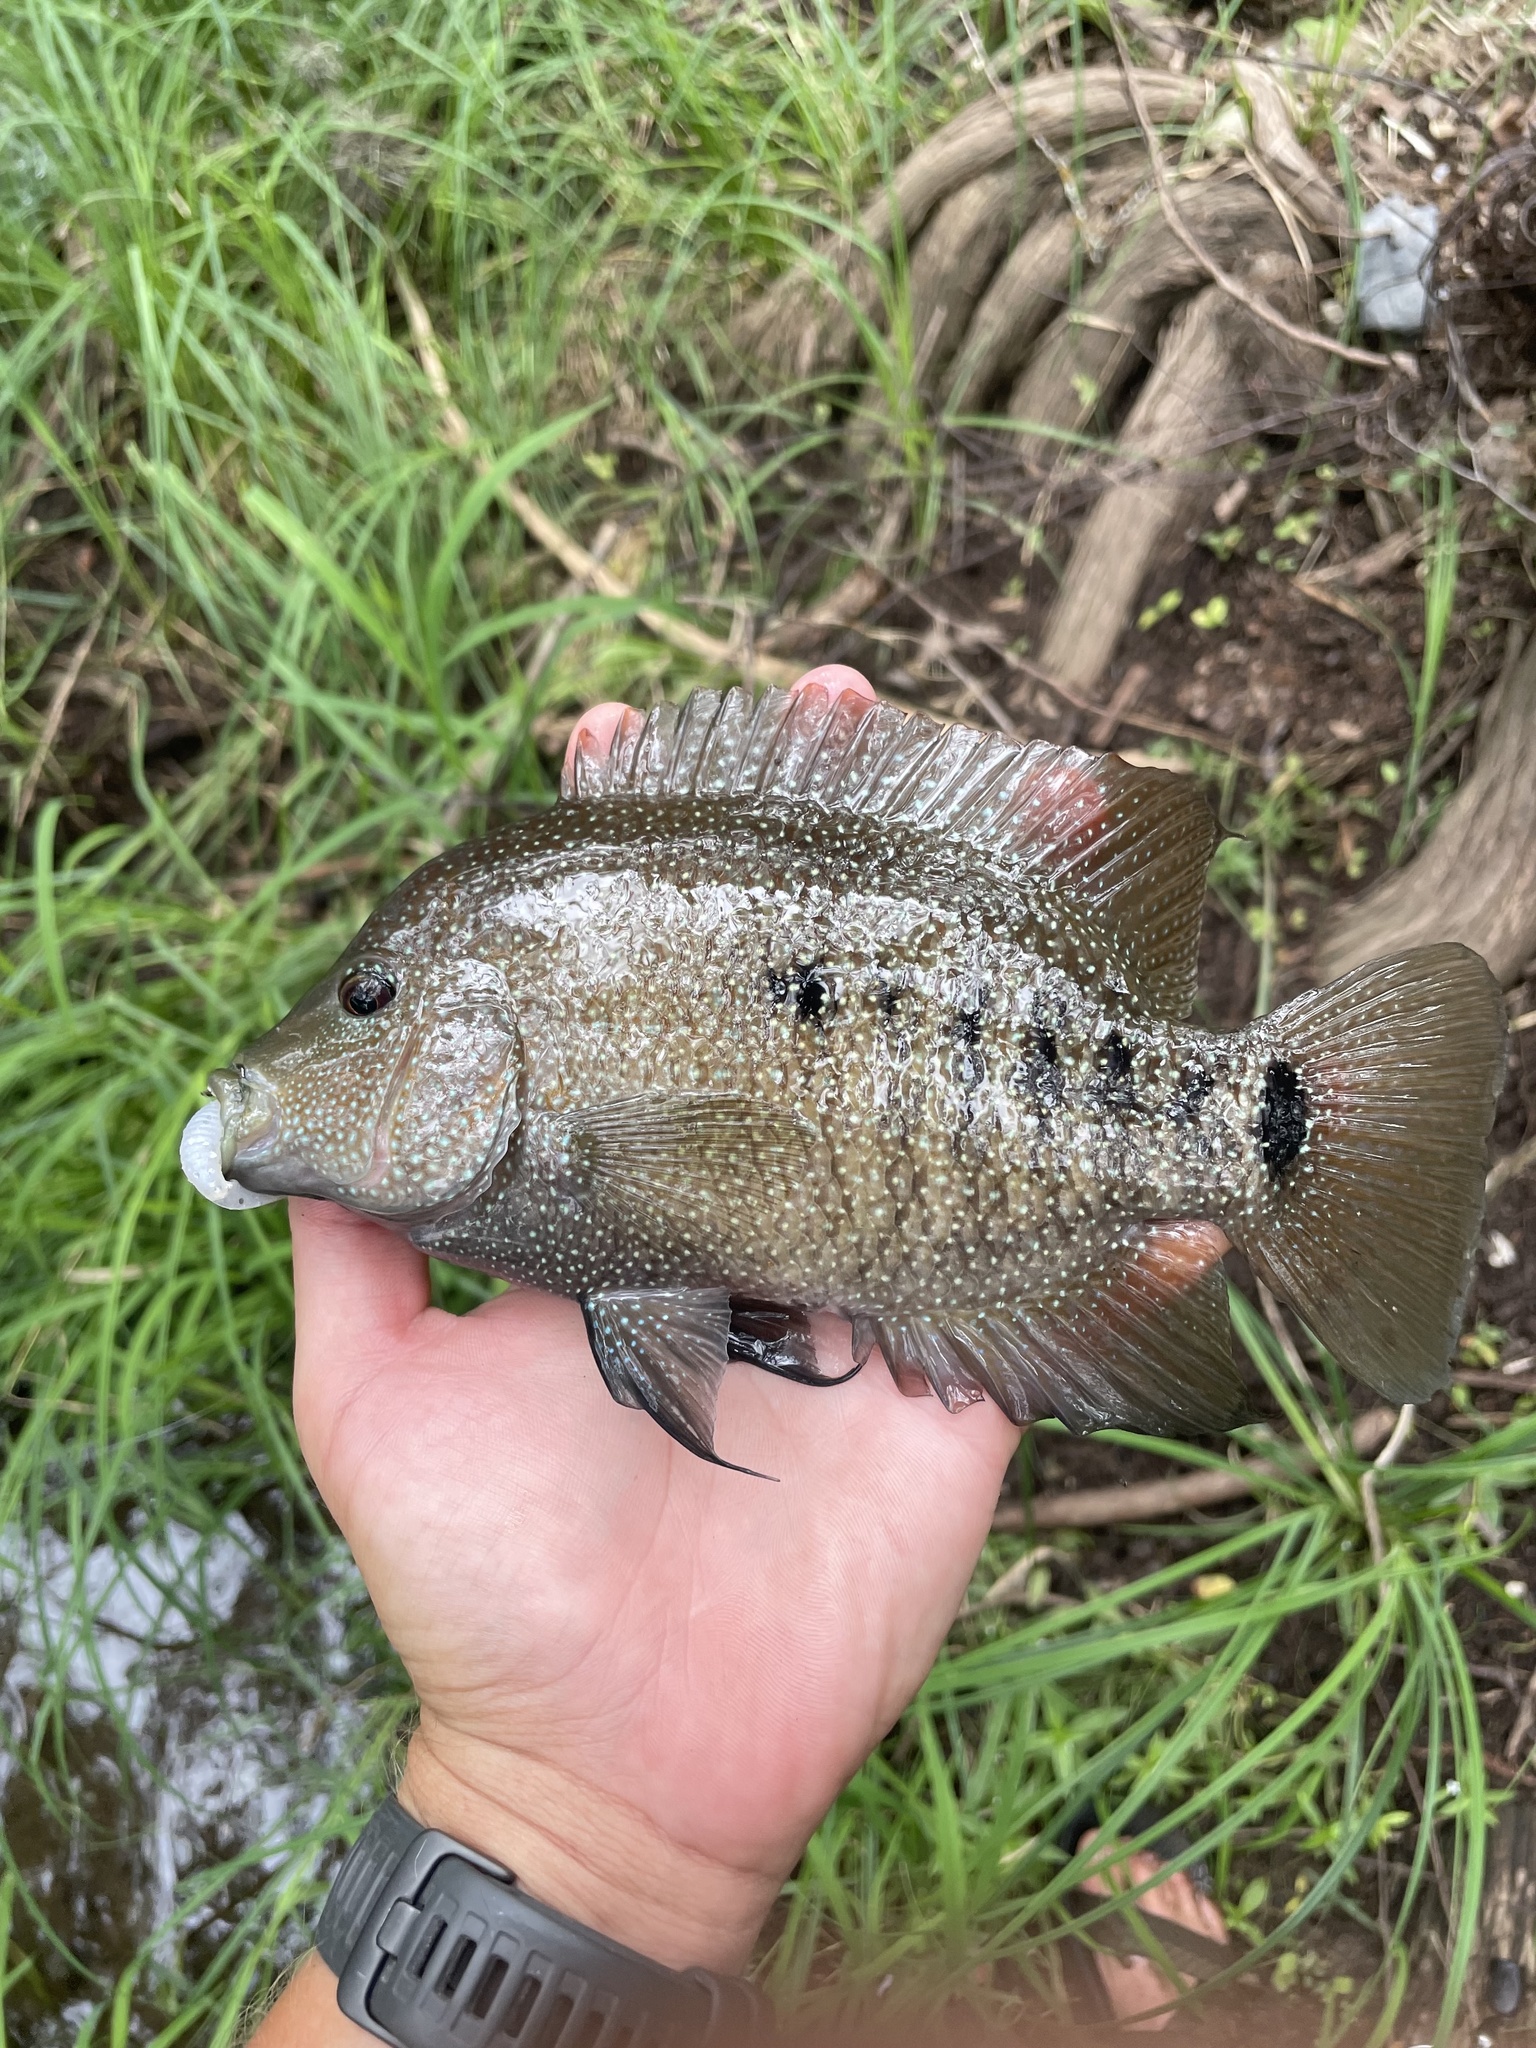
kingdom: Animalia
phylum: Chordata
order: Perciformes
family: Cichlidae
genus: Herichthys
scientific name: Herichthys cyanoguttatus
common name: Rio grande cichlid
